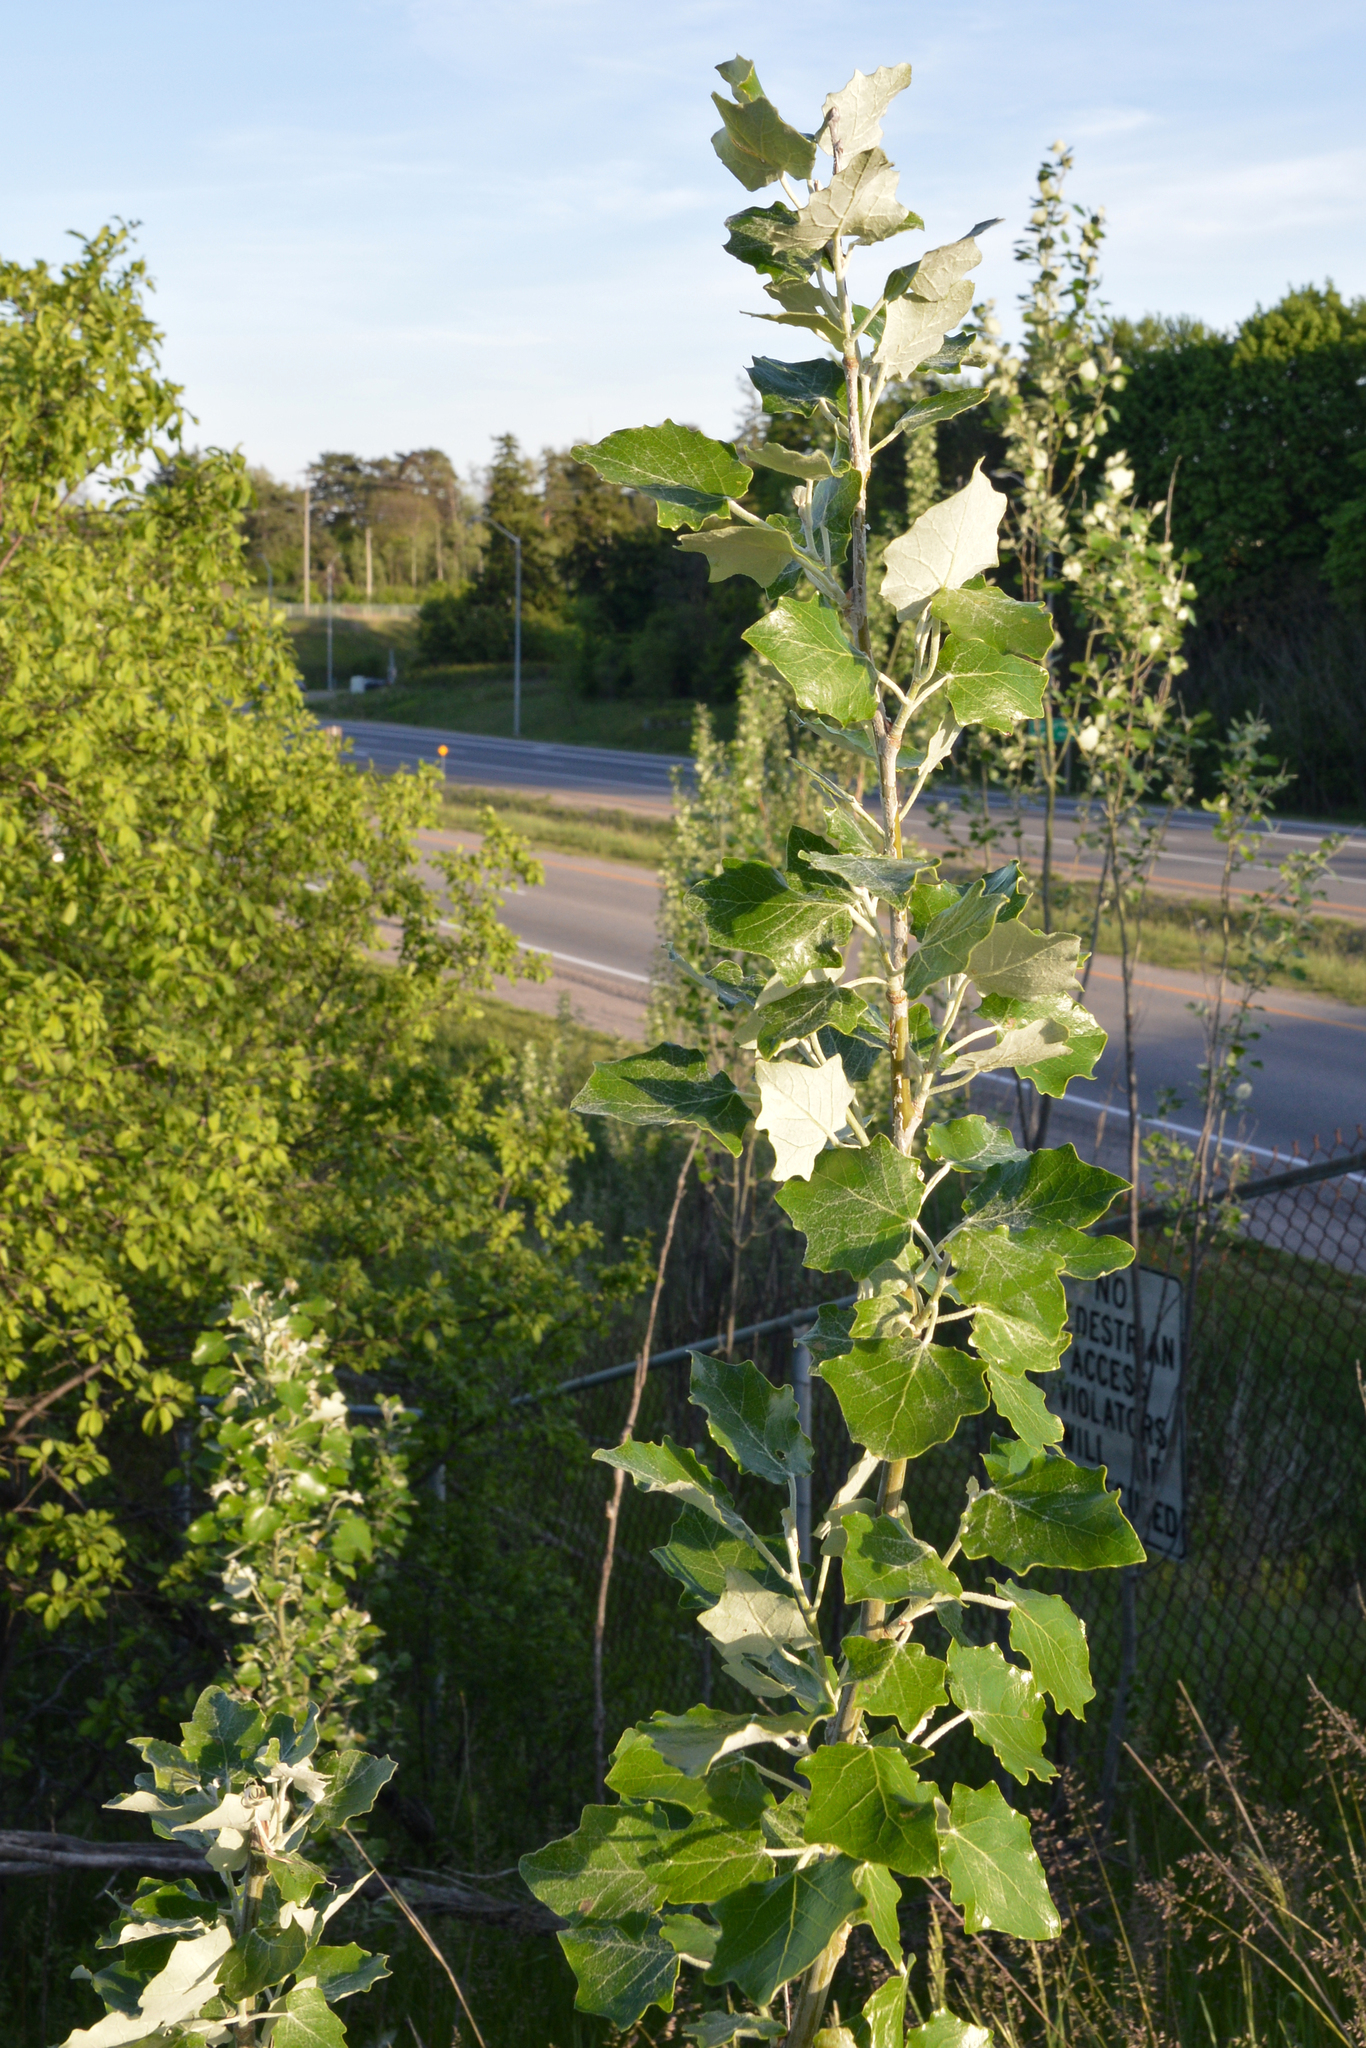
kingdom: Plantae
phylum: Tracheophyta
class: Magnoliopsida
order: Malpighiales
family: Salicaceae
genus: Populus
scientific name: Populus alba
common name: White poplar
